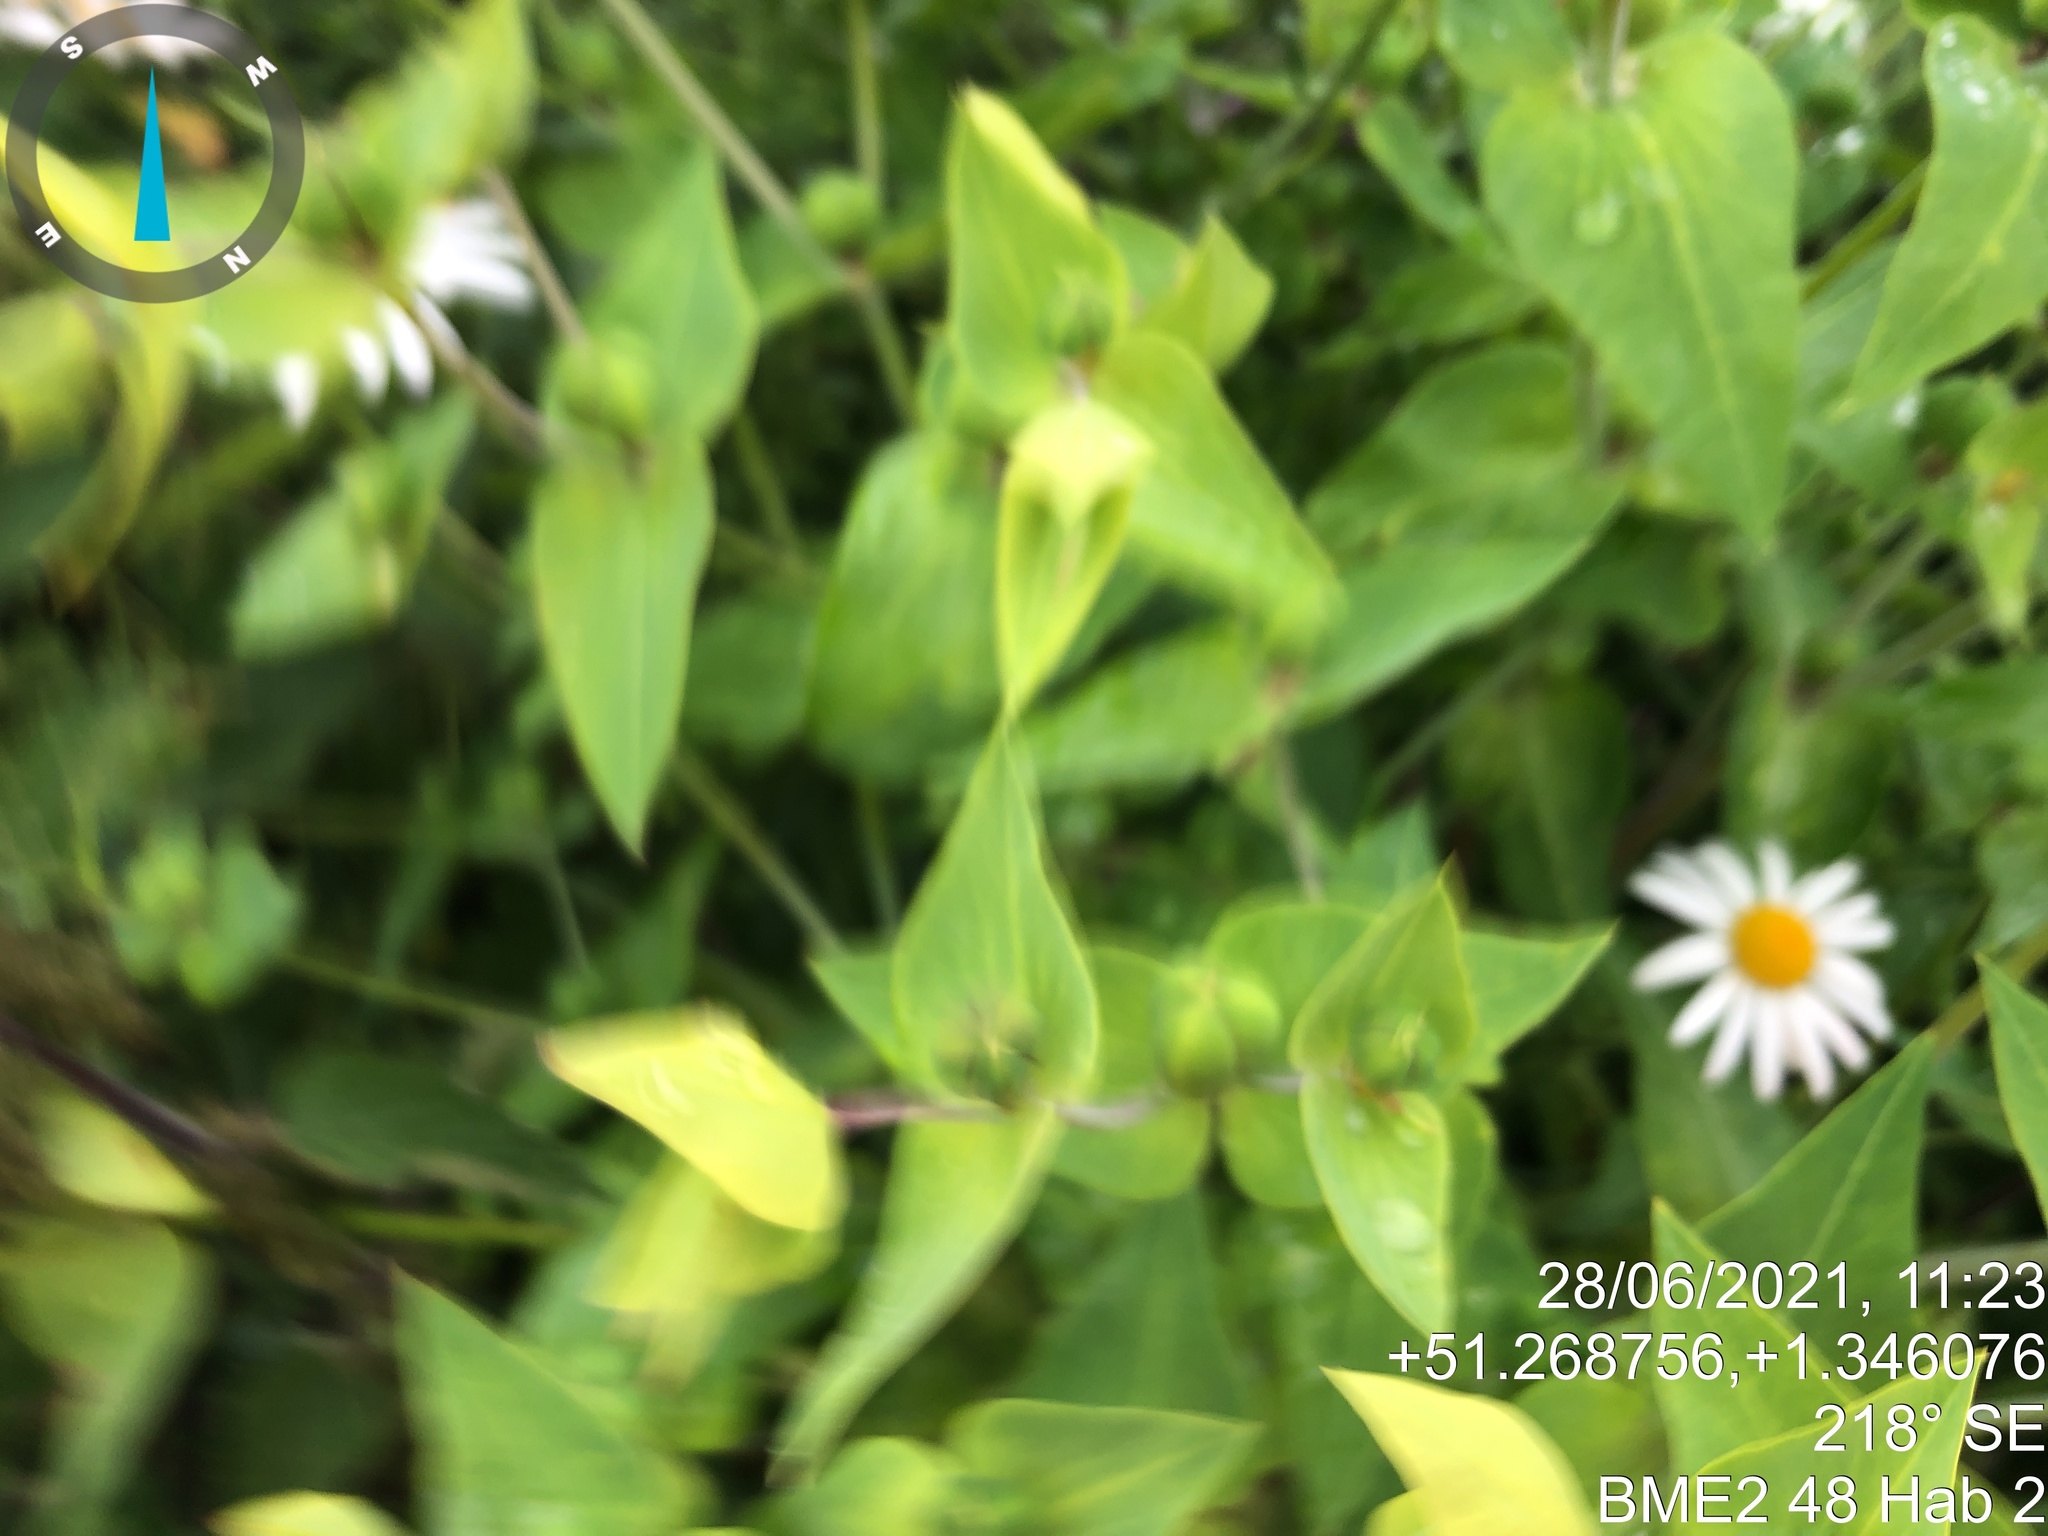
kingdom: Plantae
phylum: Tracheophyta
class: Magnoliopsida
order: Malpighiales
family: Euphorbiaceae
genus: Euphorbia
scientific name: Euphorbia lathyris
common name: Caper spurge
